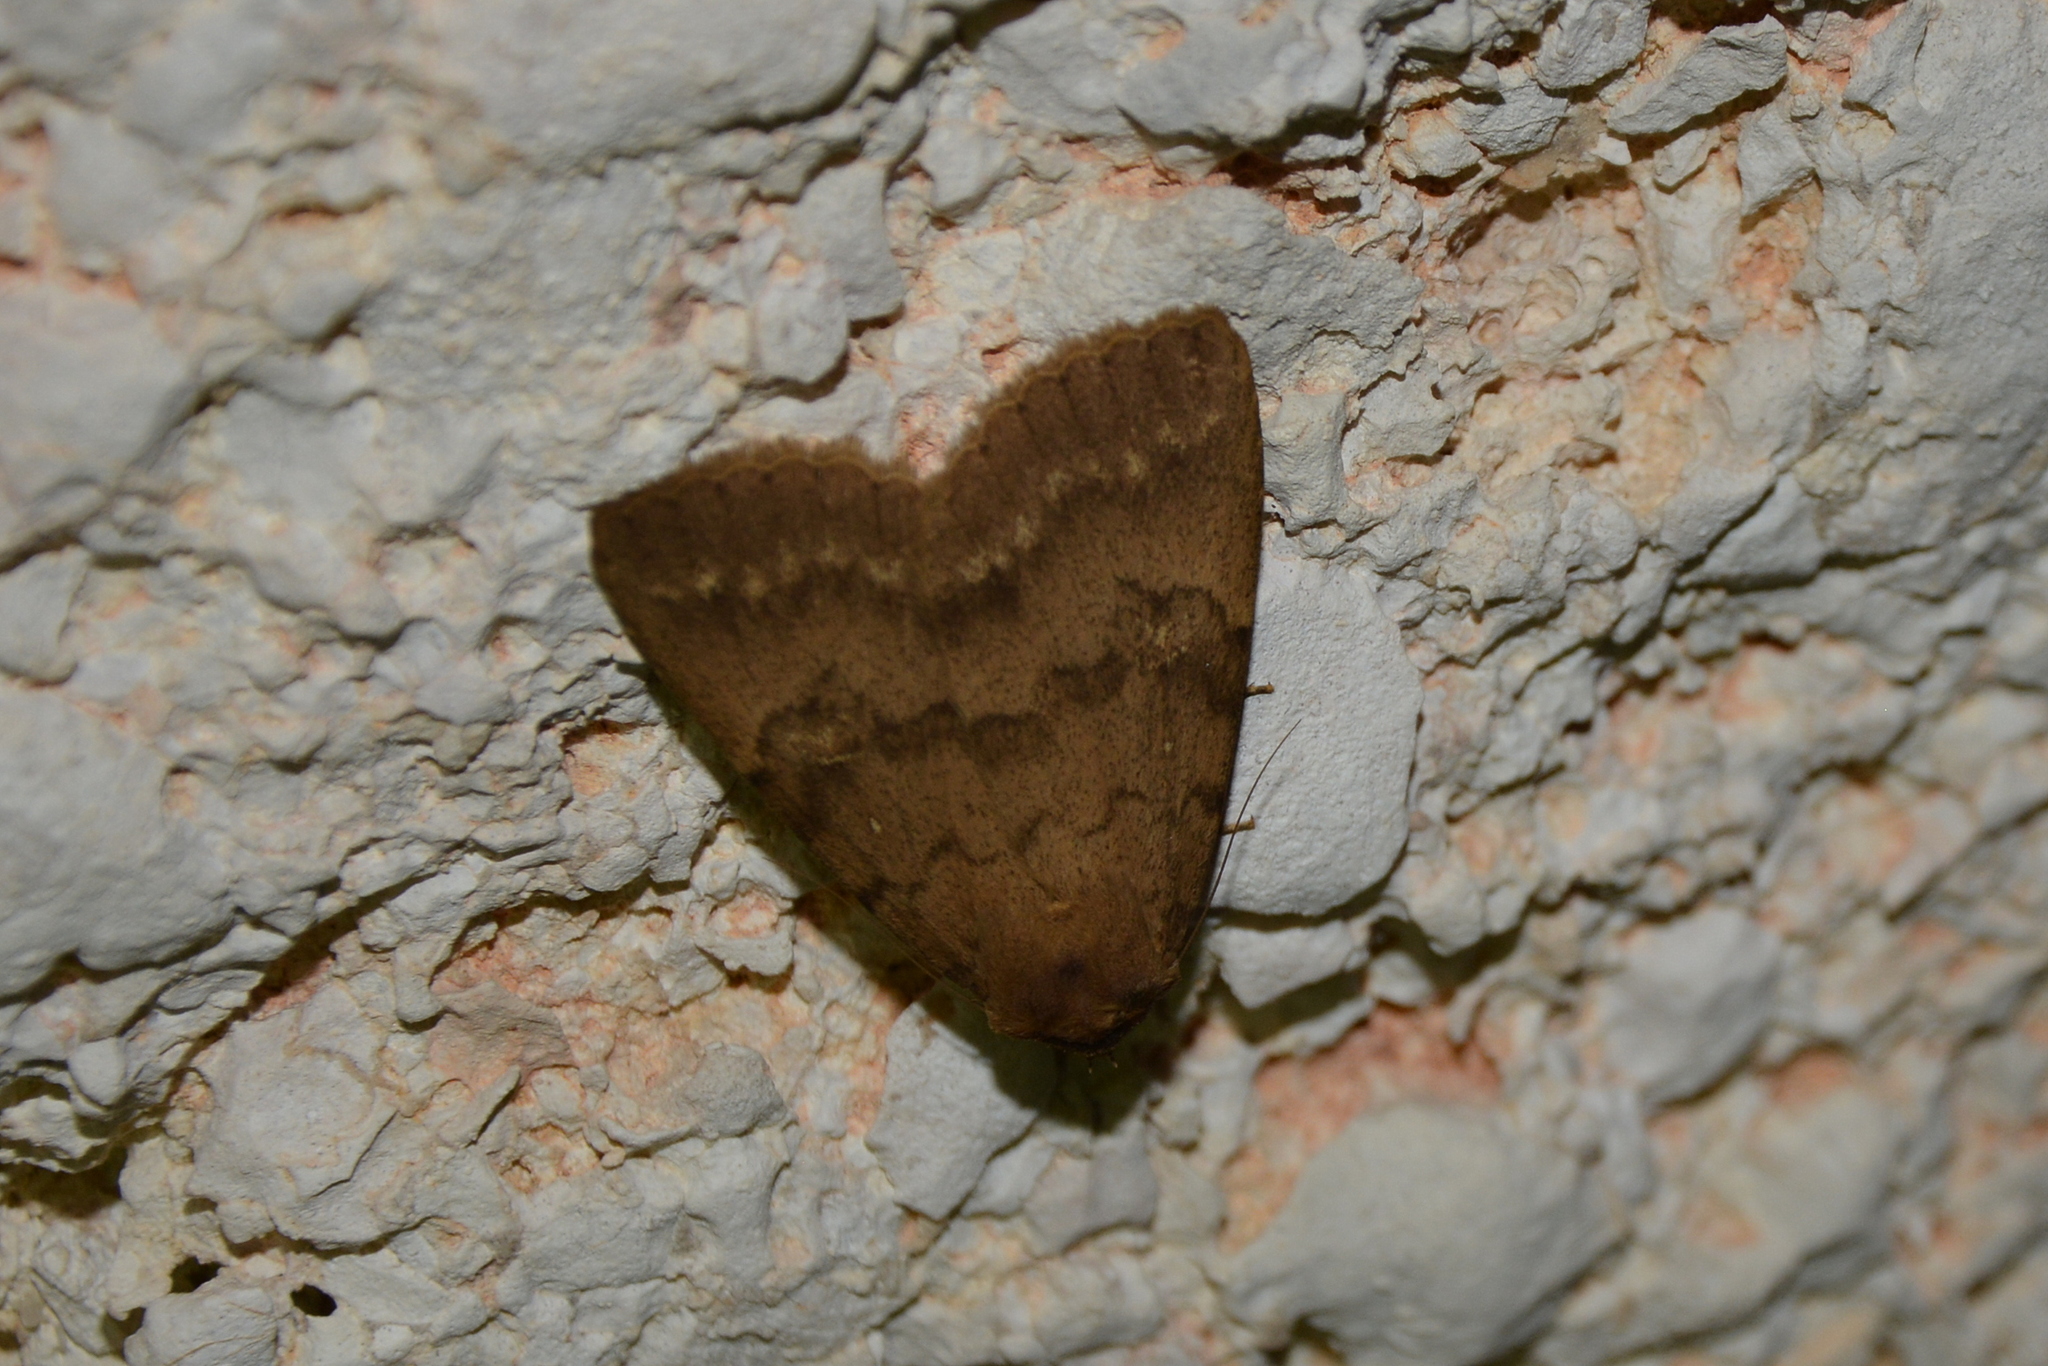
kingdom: Animalia
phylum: Arthropoda
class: Insecta
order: Lepidoptera
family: Erebidae
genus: Apopestes
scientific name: Apopestes spectrum
